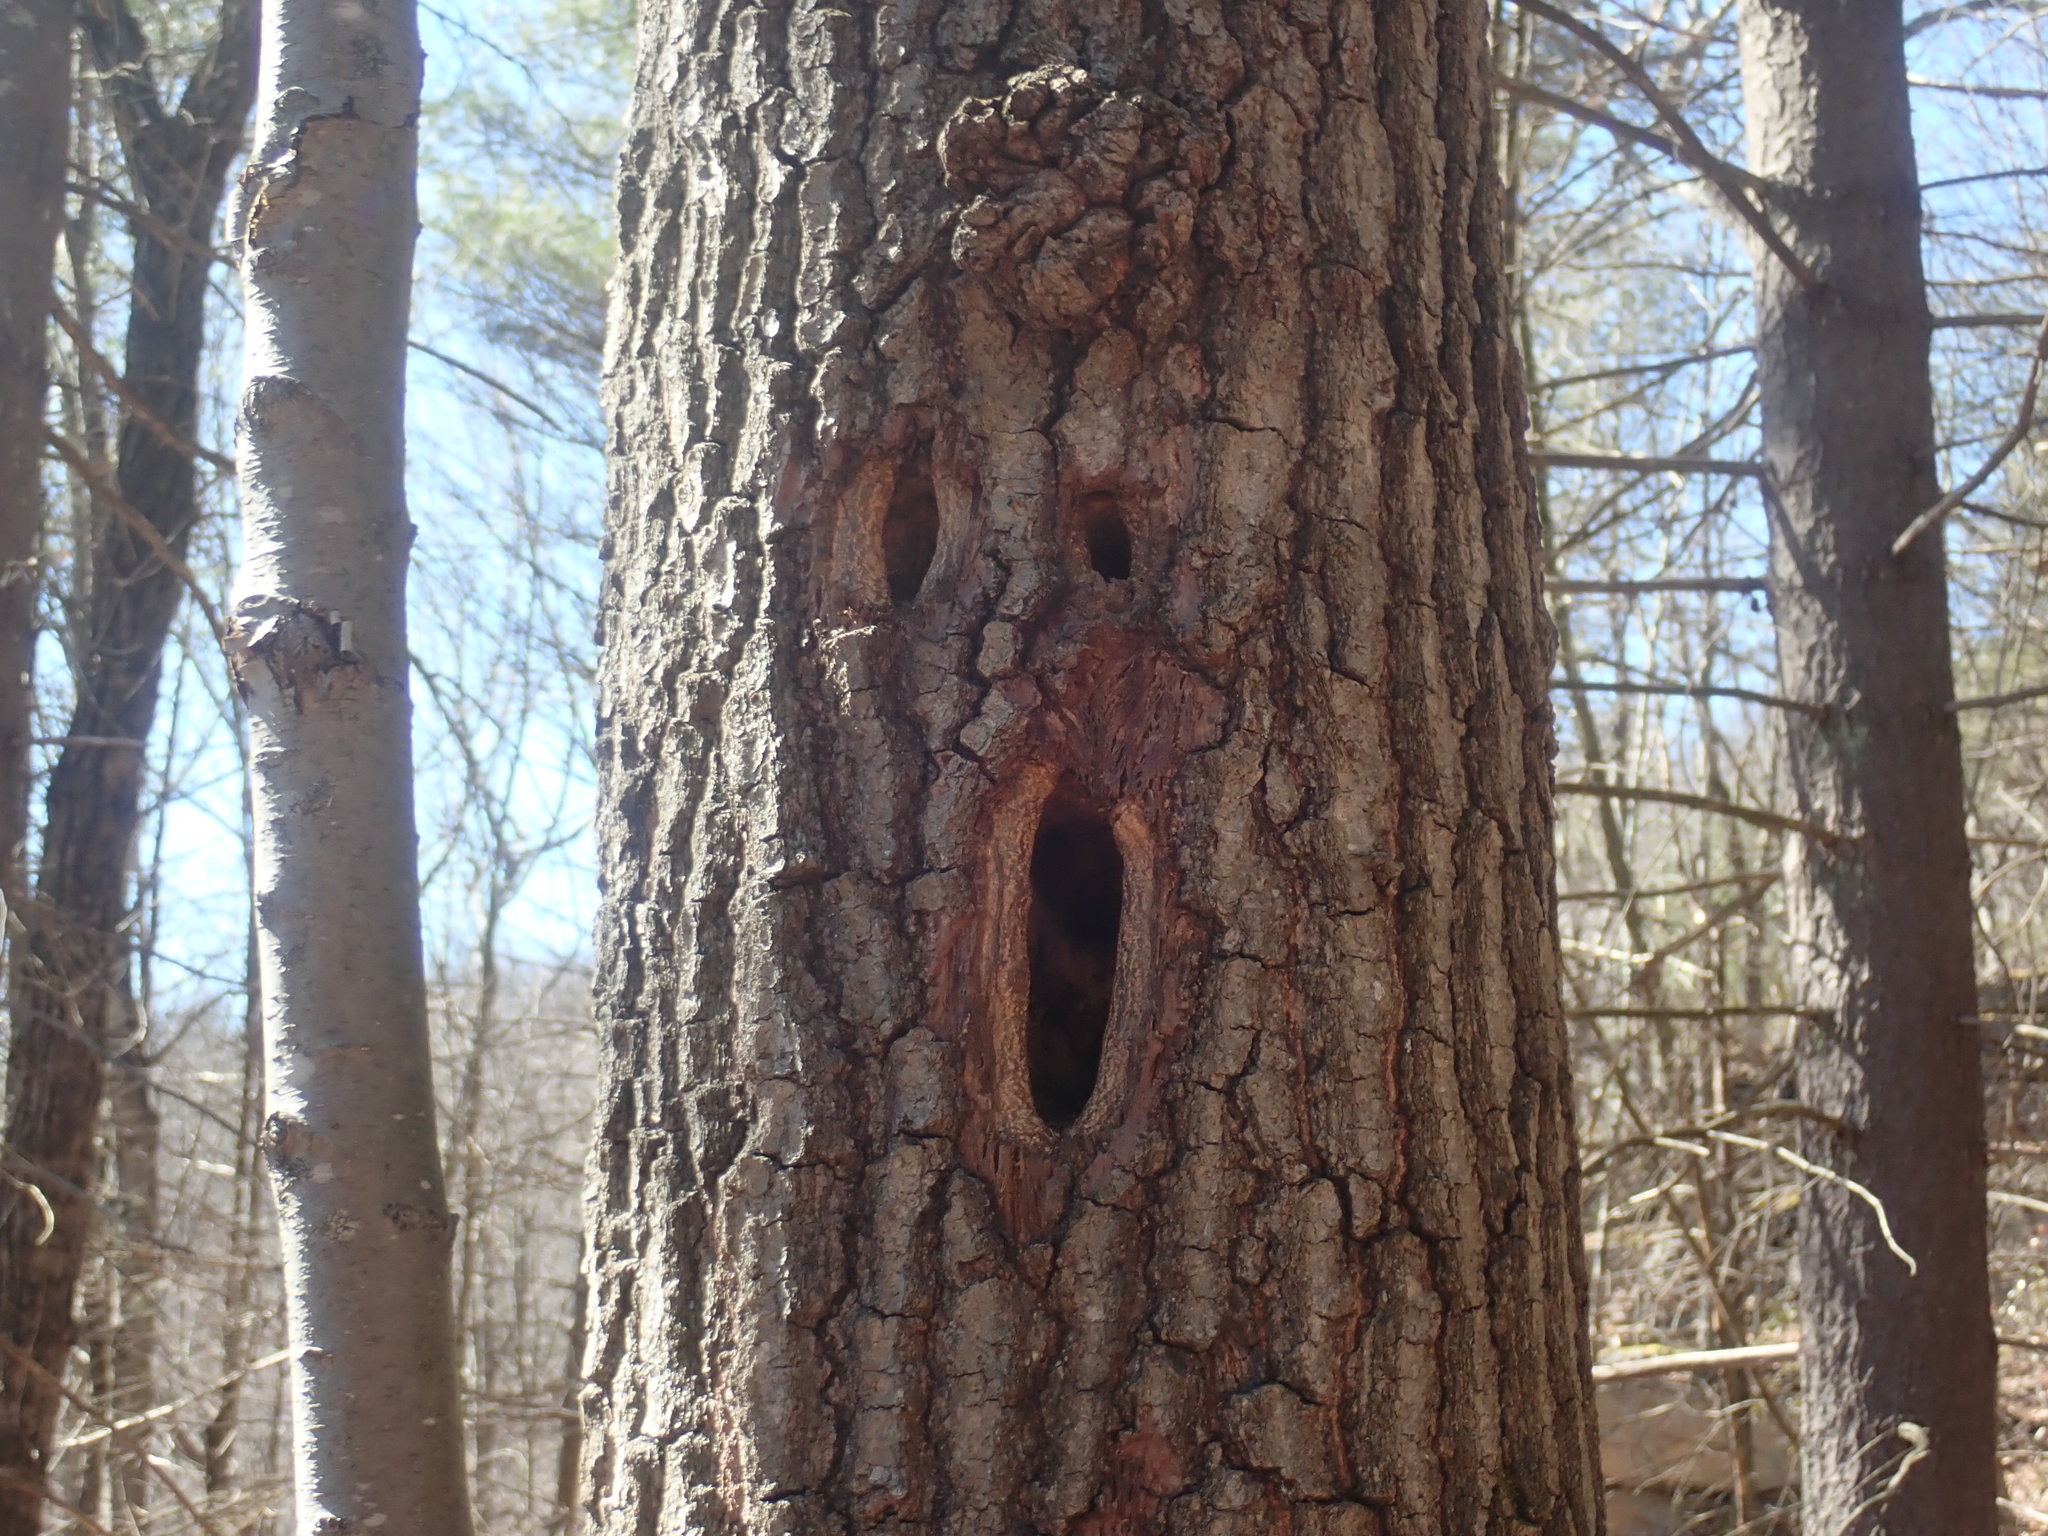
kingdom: Animalia
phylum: Chordata
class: Aves
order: Piciformes
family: Picidae
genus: Dryocopus
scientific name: Dryocopus pileatus
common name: Pileated woodpecker
